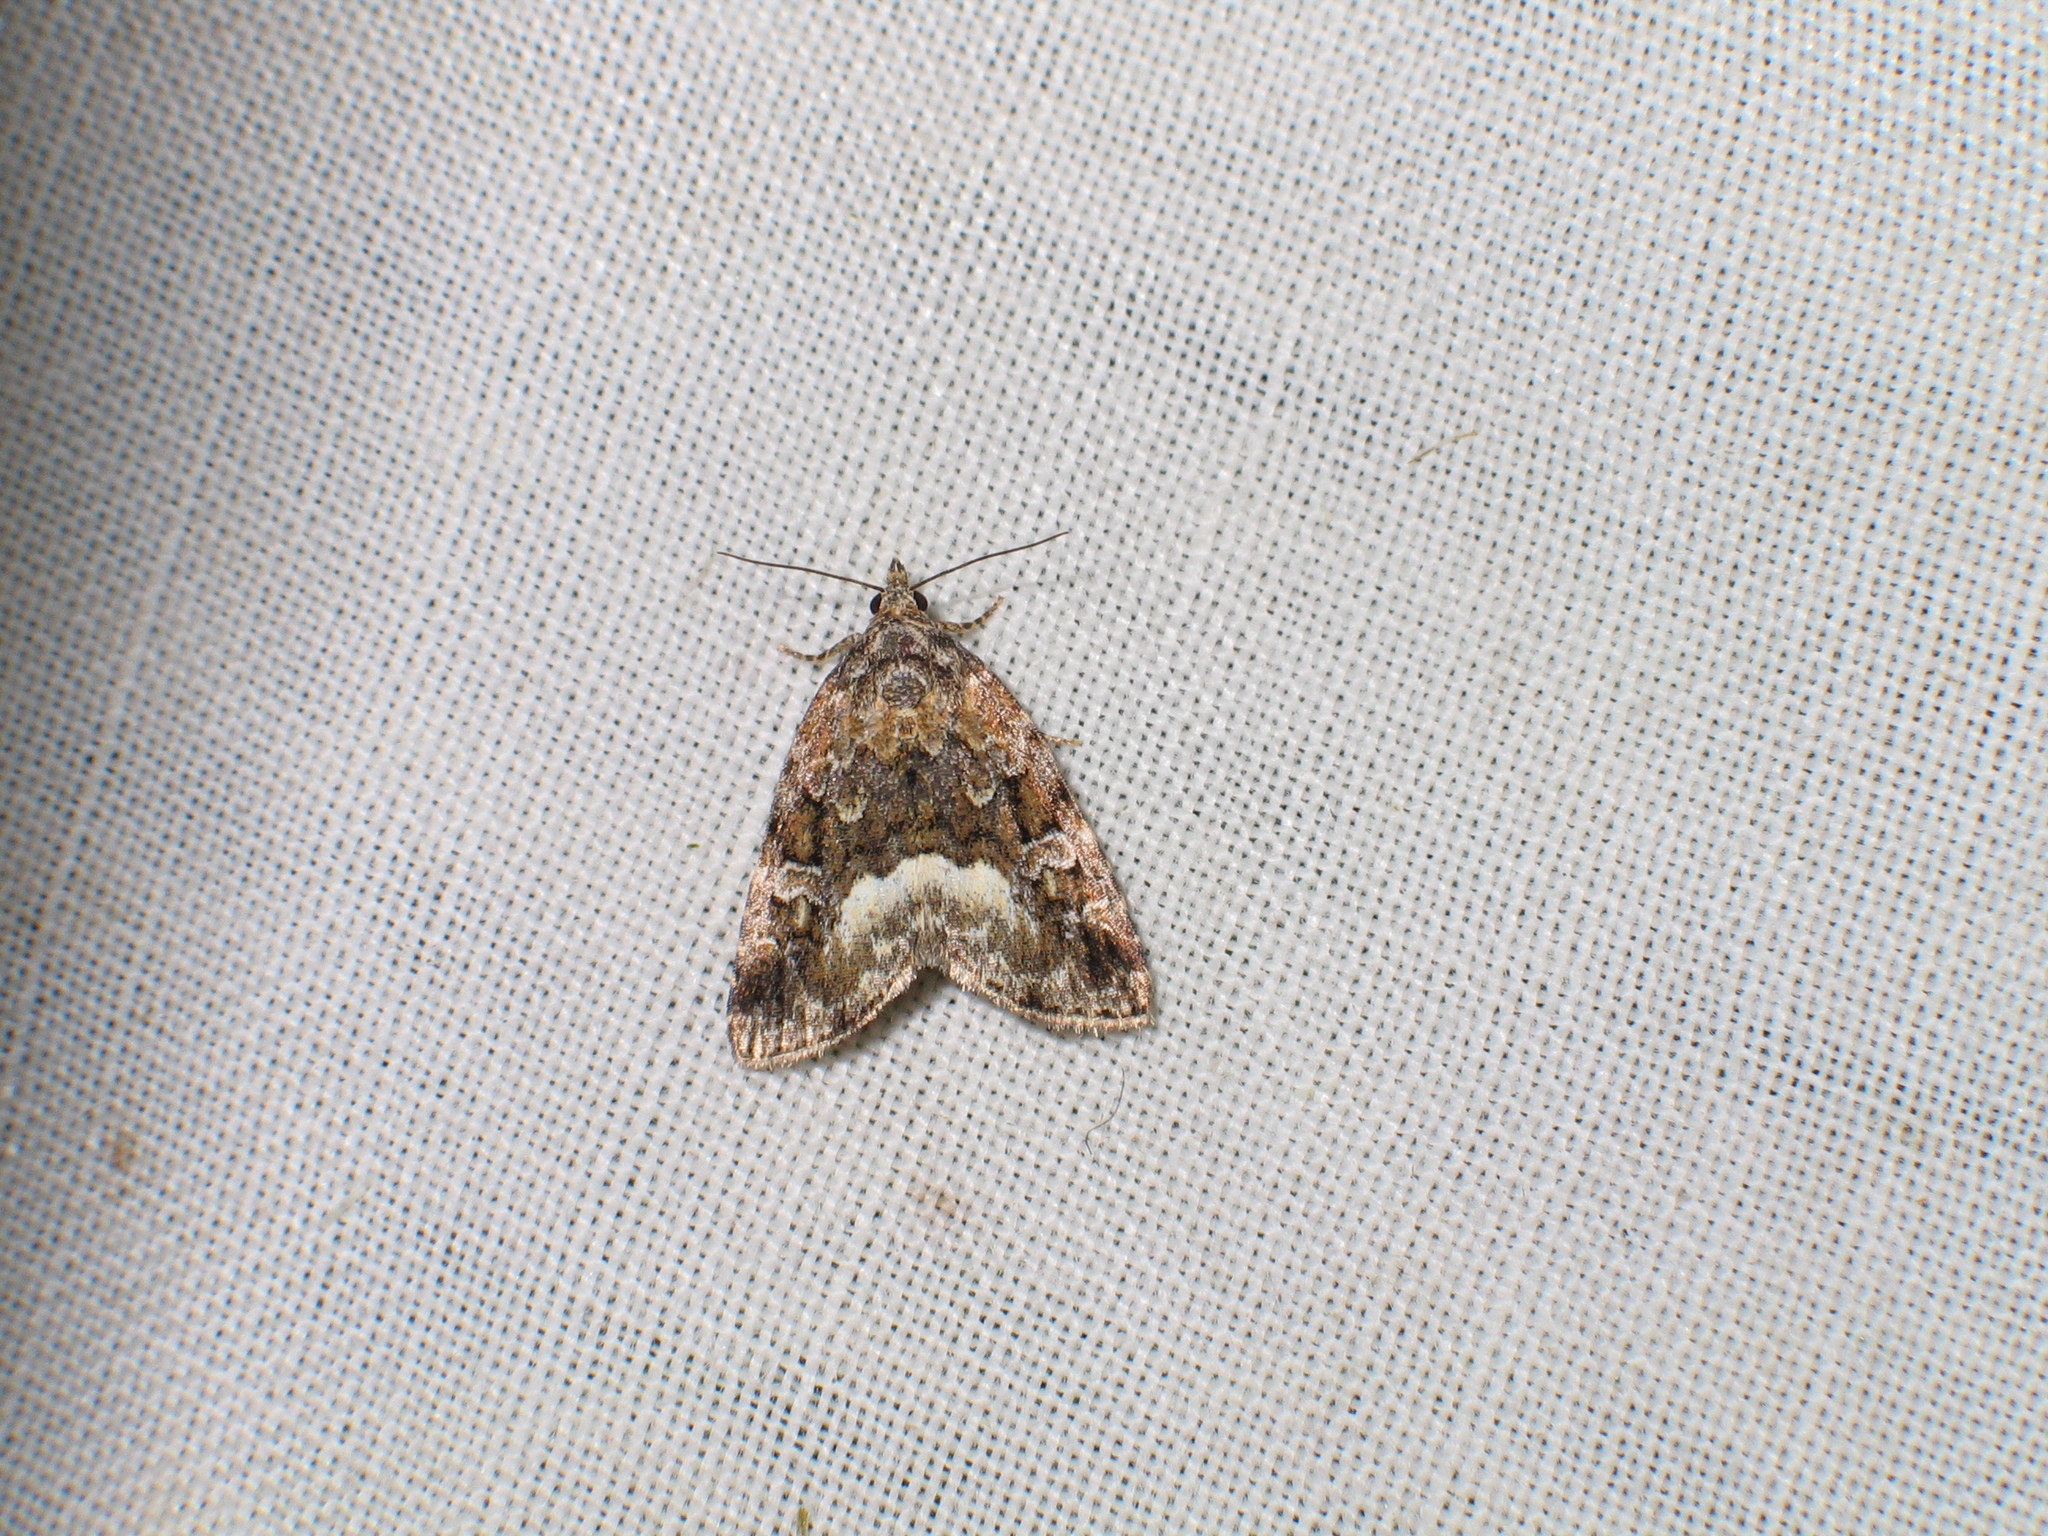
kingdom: Animalia
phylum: Arthropoda
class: Insecta
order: Lepidoptera
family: Noctuidae
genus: Deltote
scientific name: Deltote pygarga
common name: Marbled white spot
